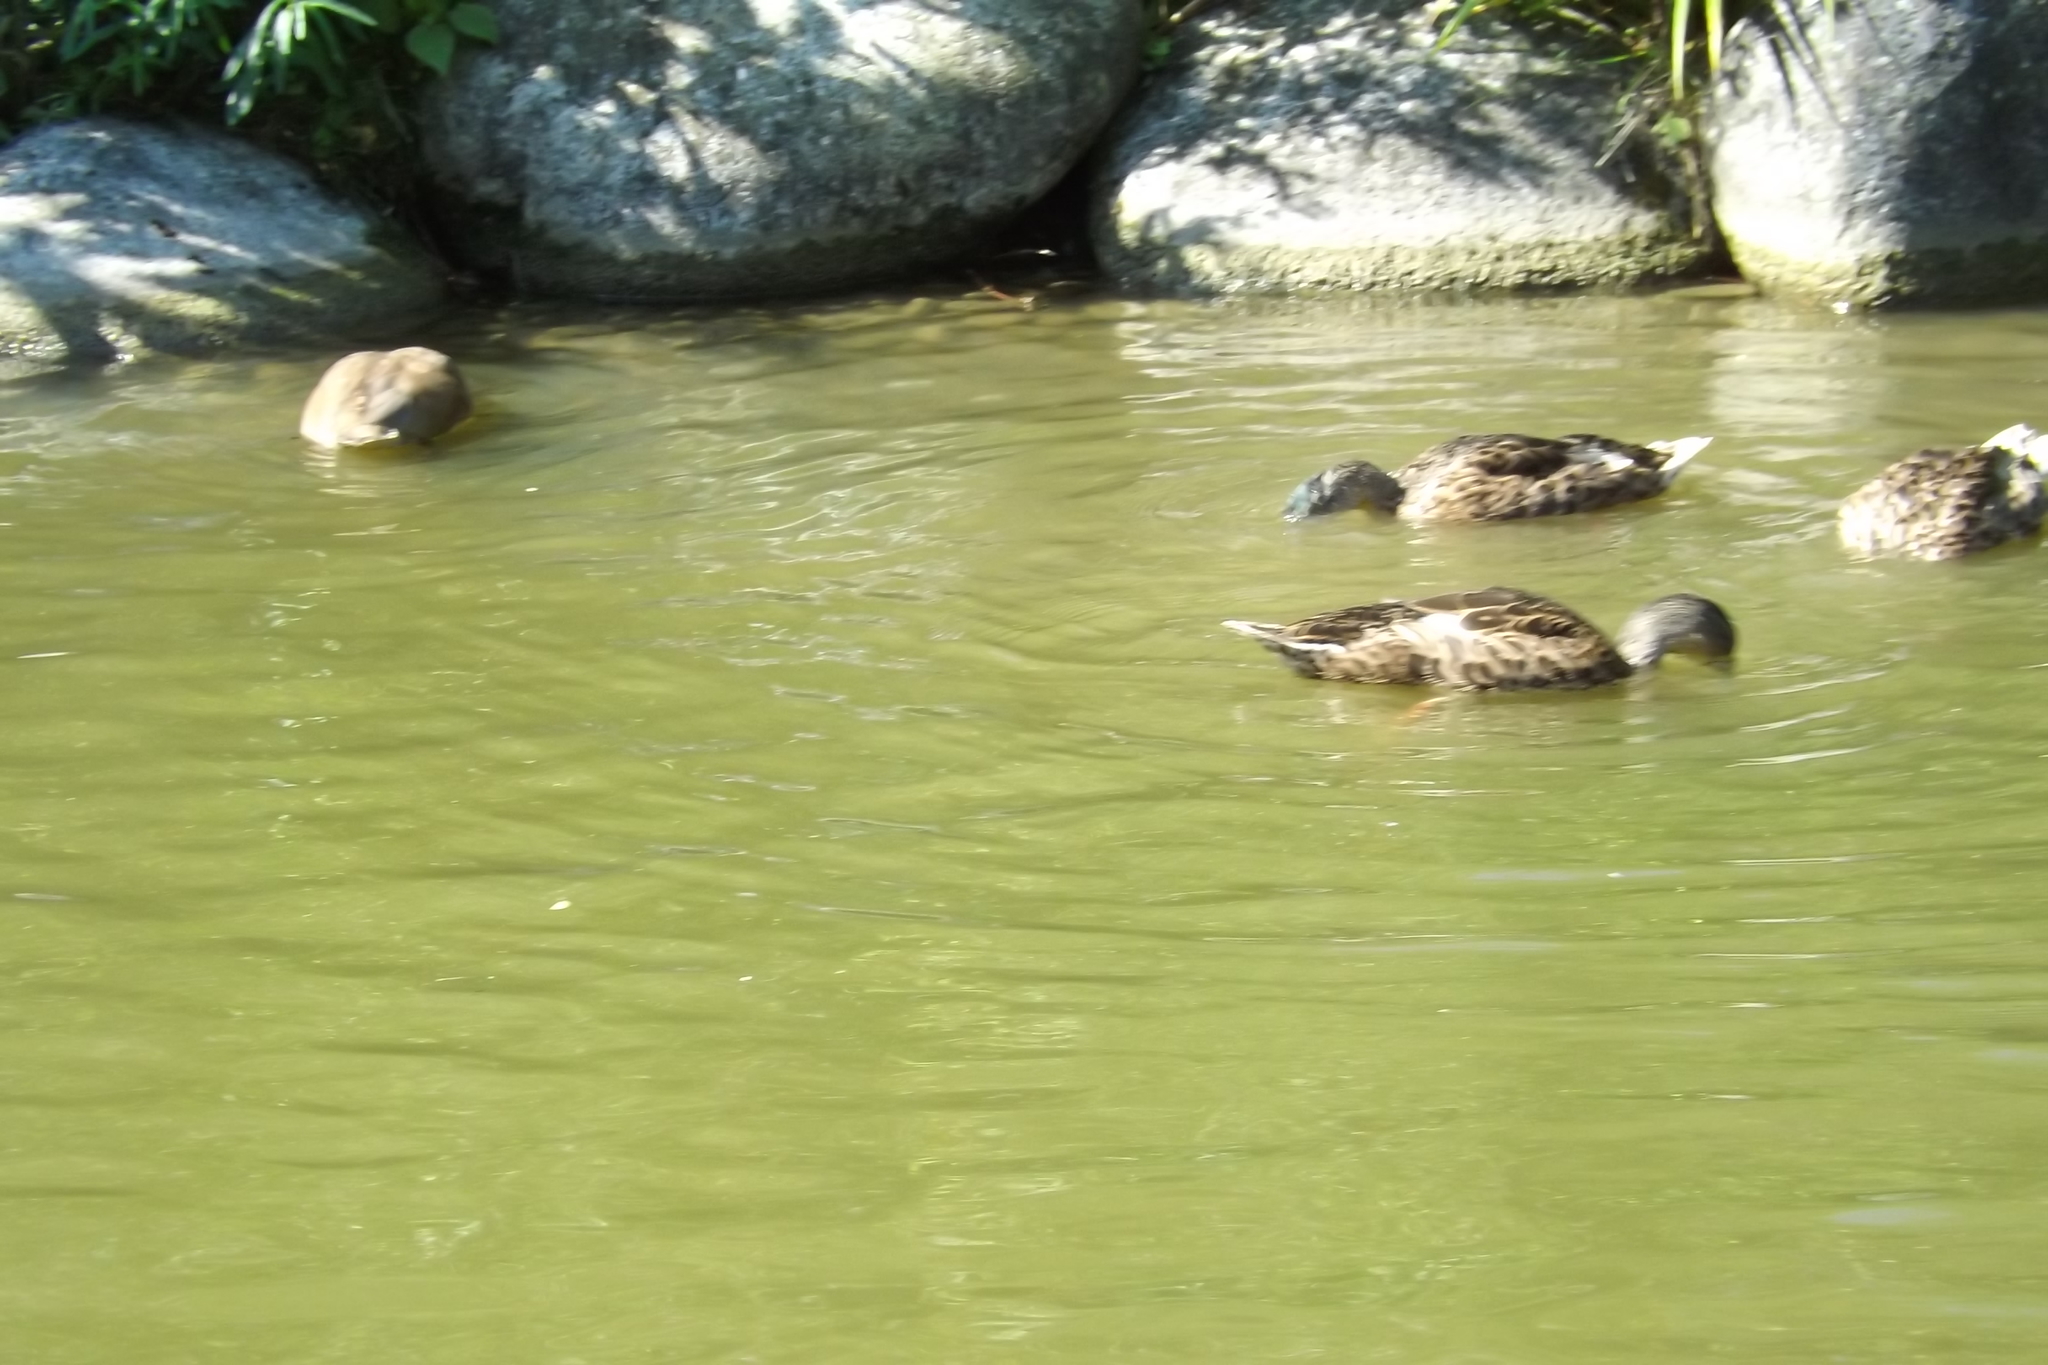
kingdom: Animalia
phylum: Chordata
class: Aves
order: Anseriformes
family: Anatidae
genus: Anas
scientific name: Anas platyrhynchos
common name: Mallard
